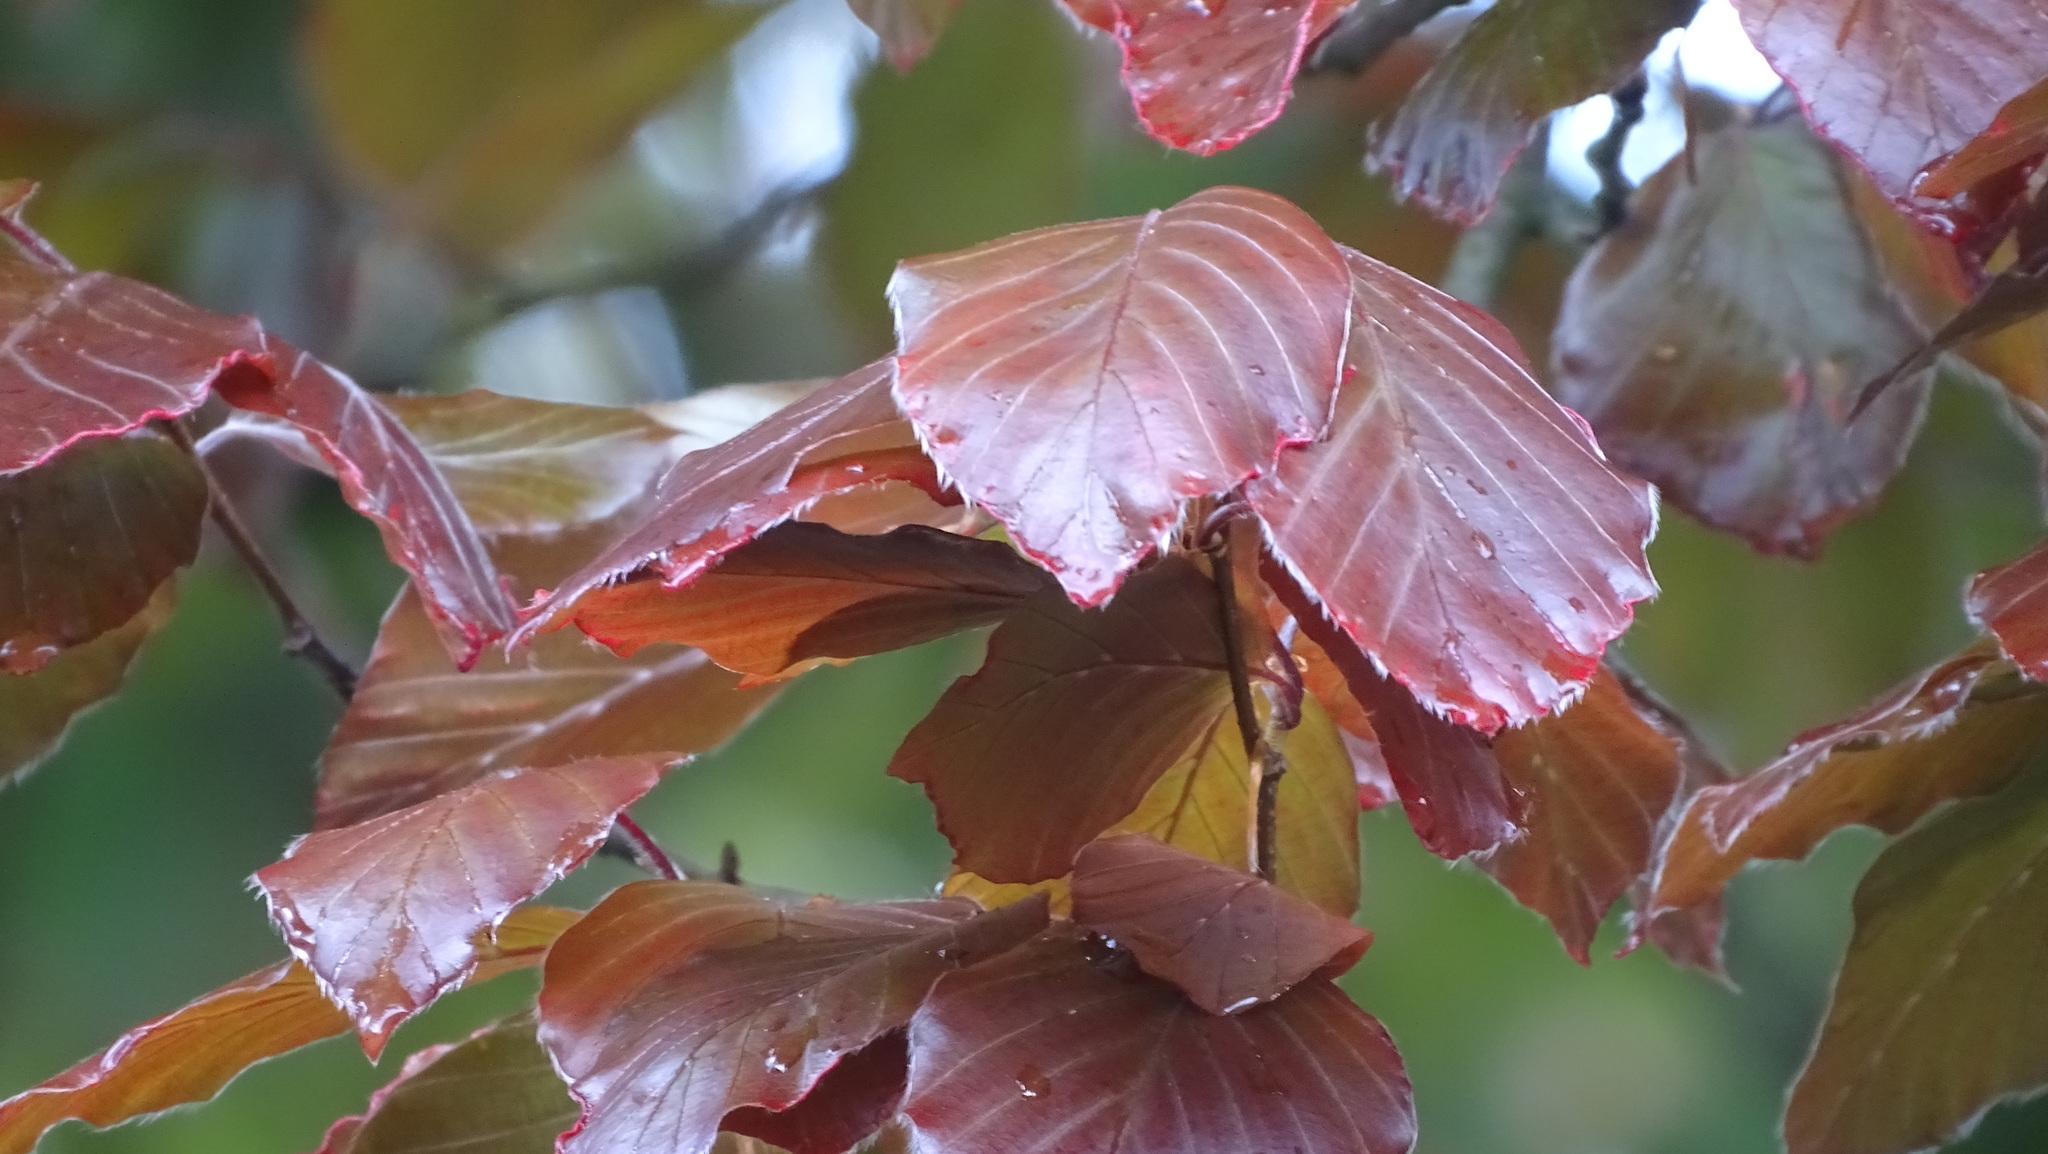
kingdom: Plantae
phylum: Tracheophyta
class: Magnoliopsida
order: Fagales
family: Fagaceae
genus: Fagus
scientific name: Fagus sylvatica
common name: Beech
